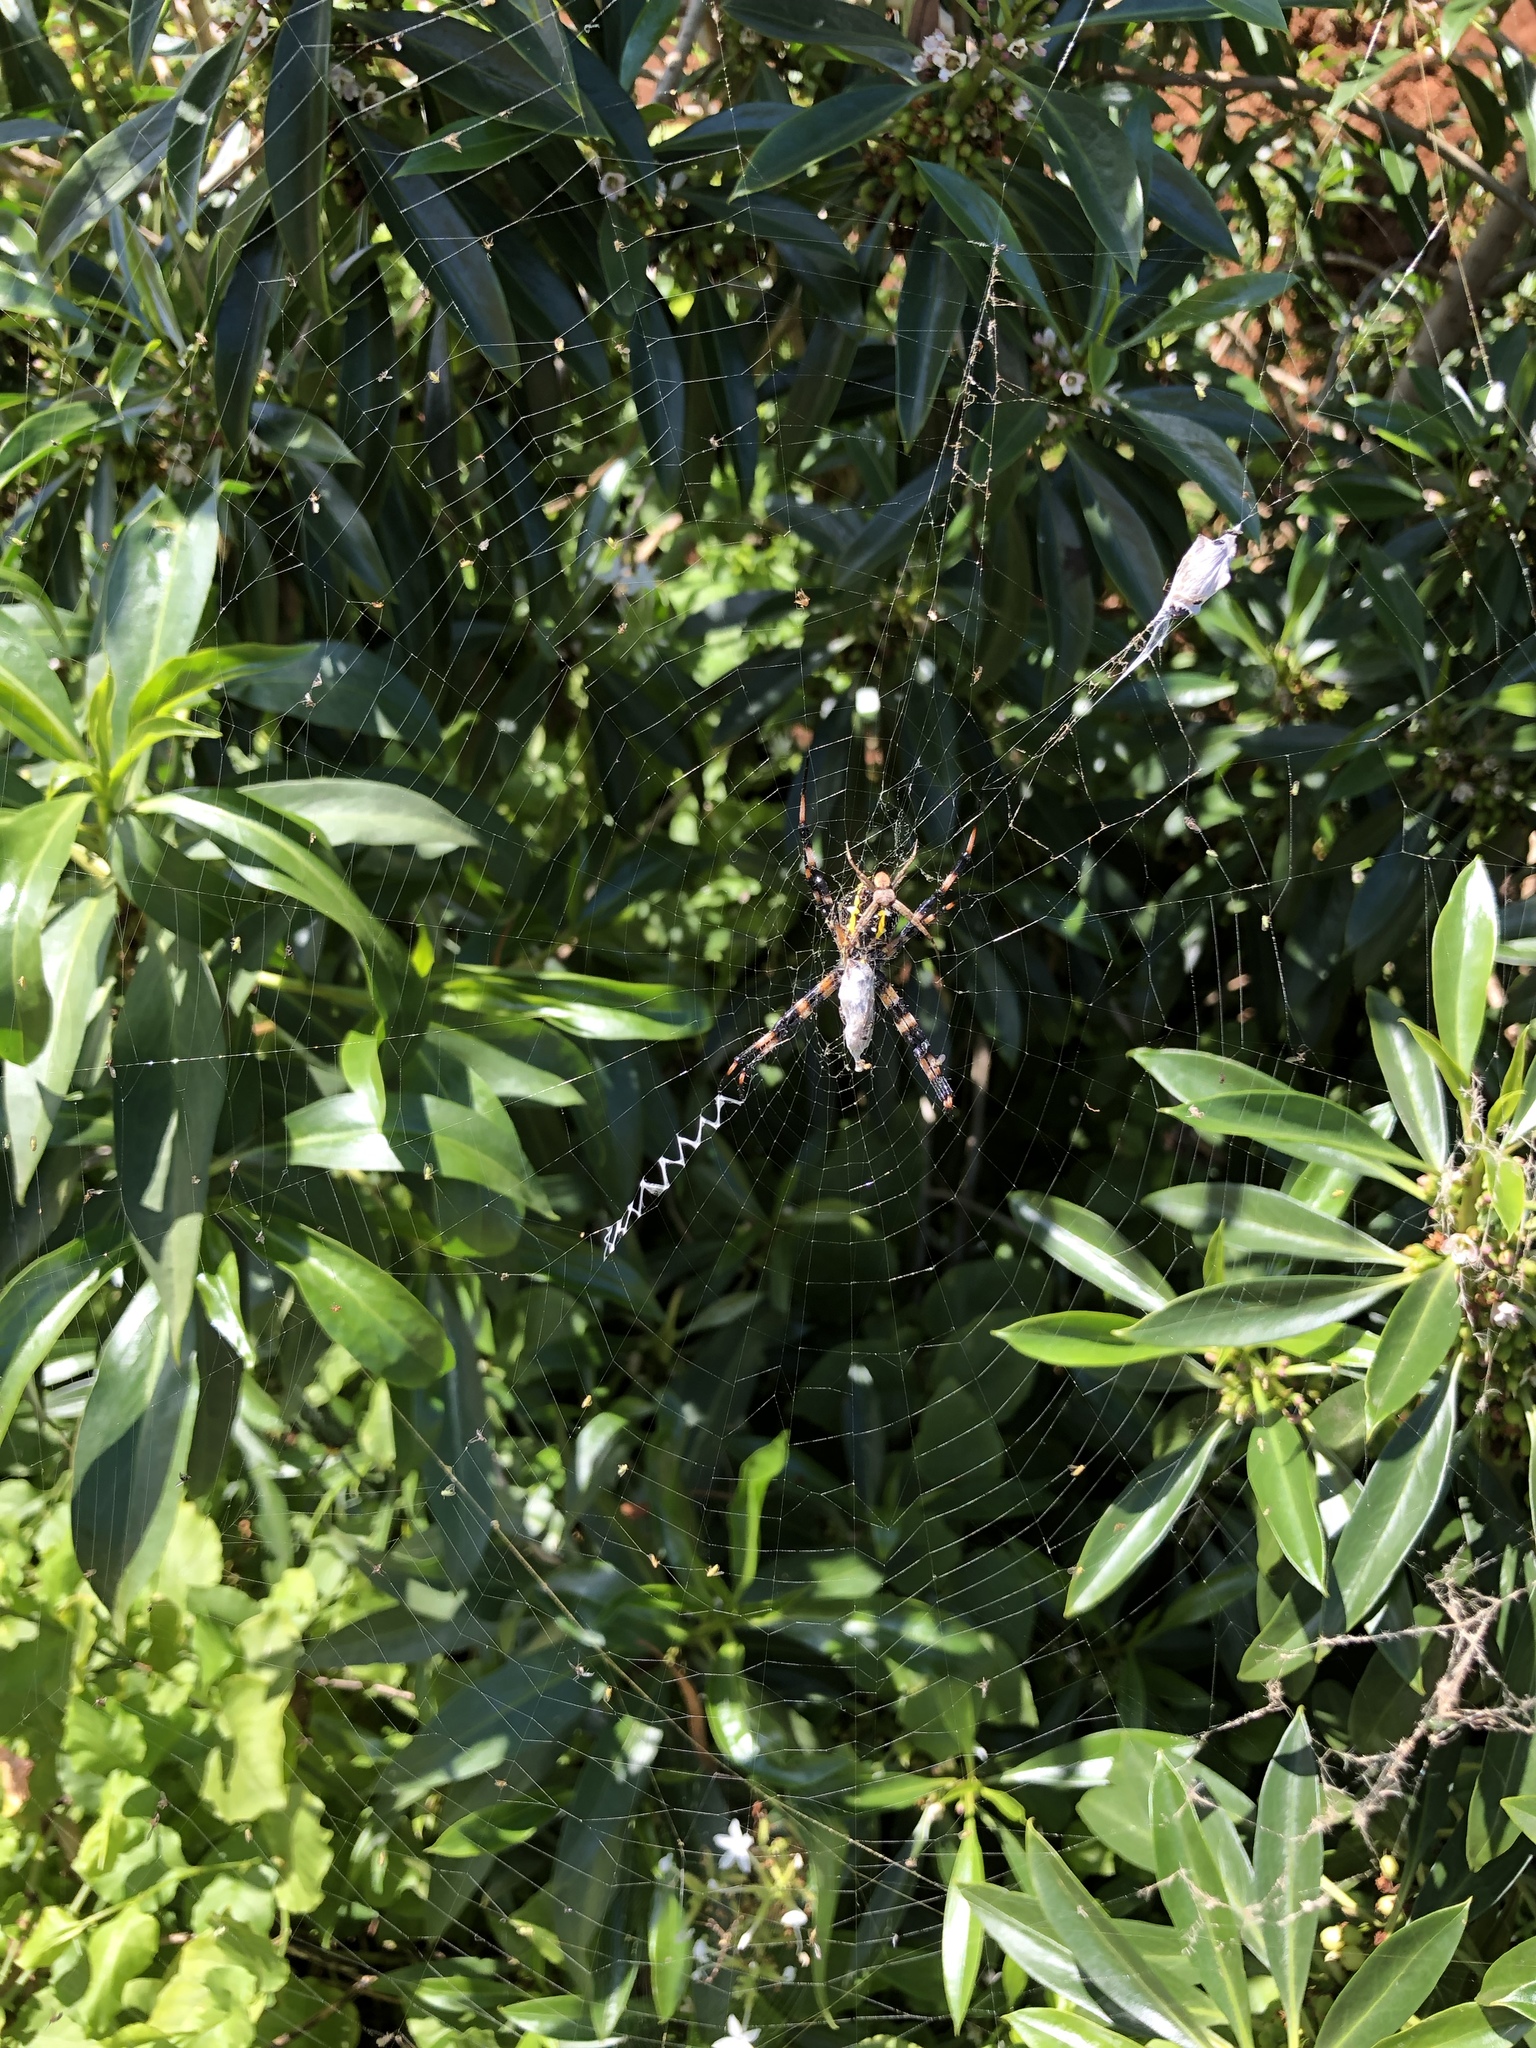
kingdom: Animalia
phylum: Arthropoda
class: Arachnida
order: Araneae
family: Araneidae
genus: Argiope
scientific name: Argiope appensa
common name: Garden spider
